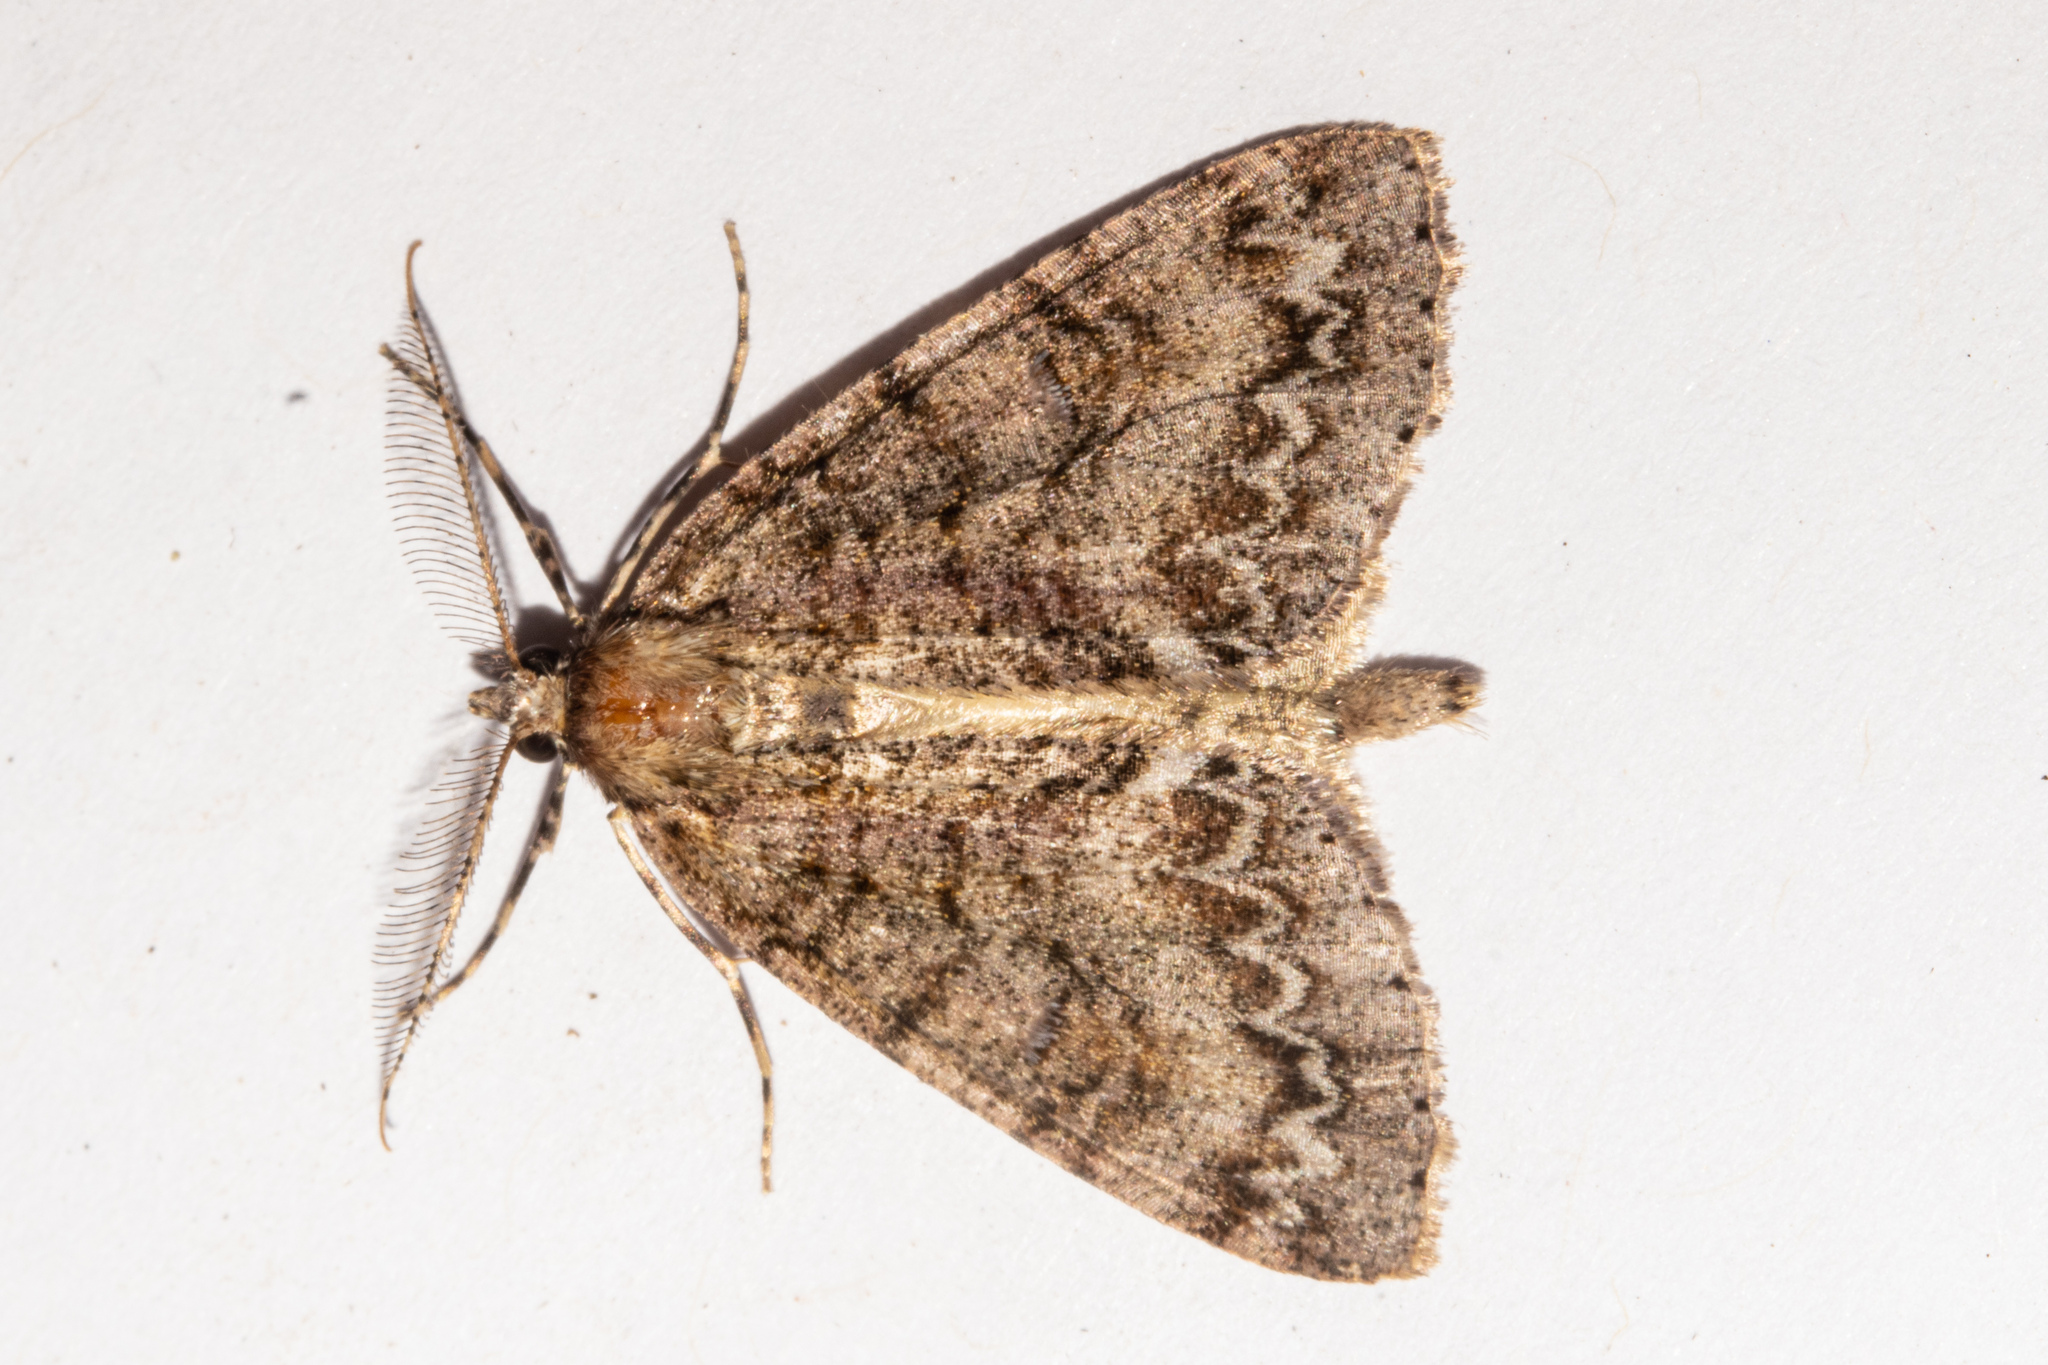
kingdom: Animalia
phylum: Arthropoda
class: Insecta
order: Lepidoptera
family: Geometridae
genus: Pseudocoremia
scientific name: Pseudocoremia suavis
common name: Common forest looper
